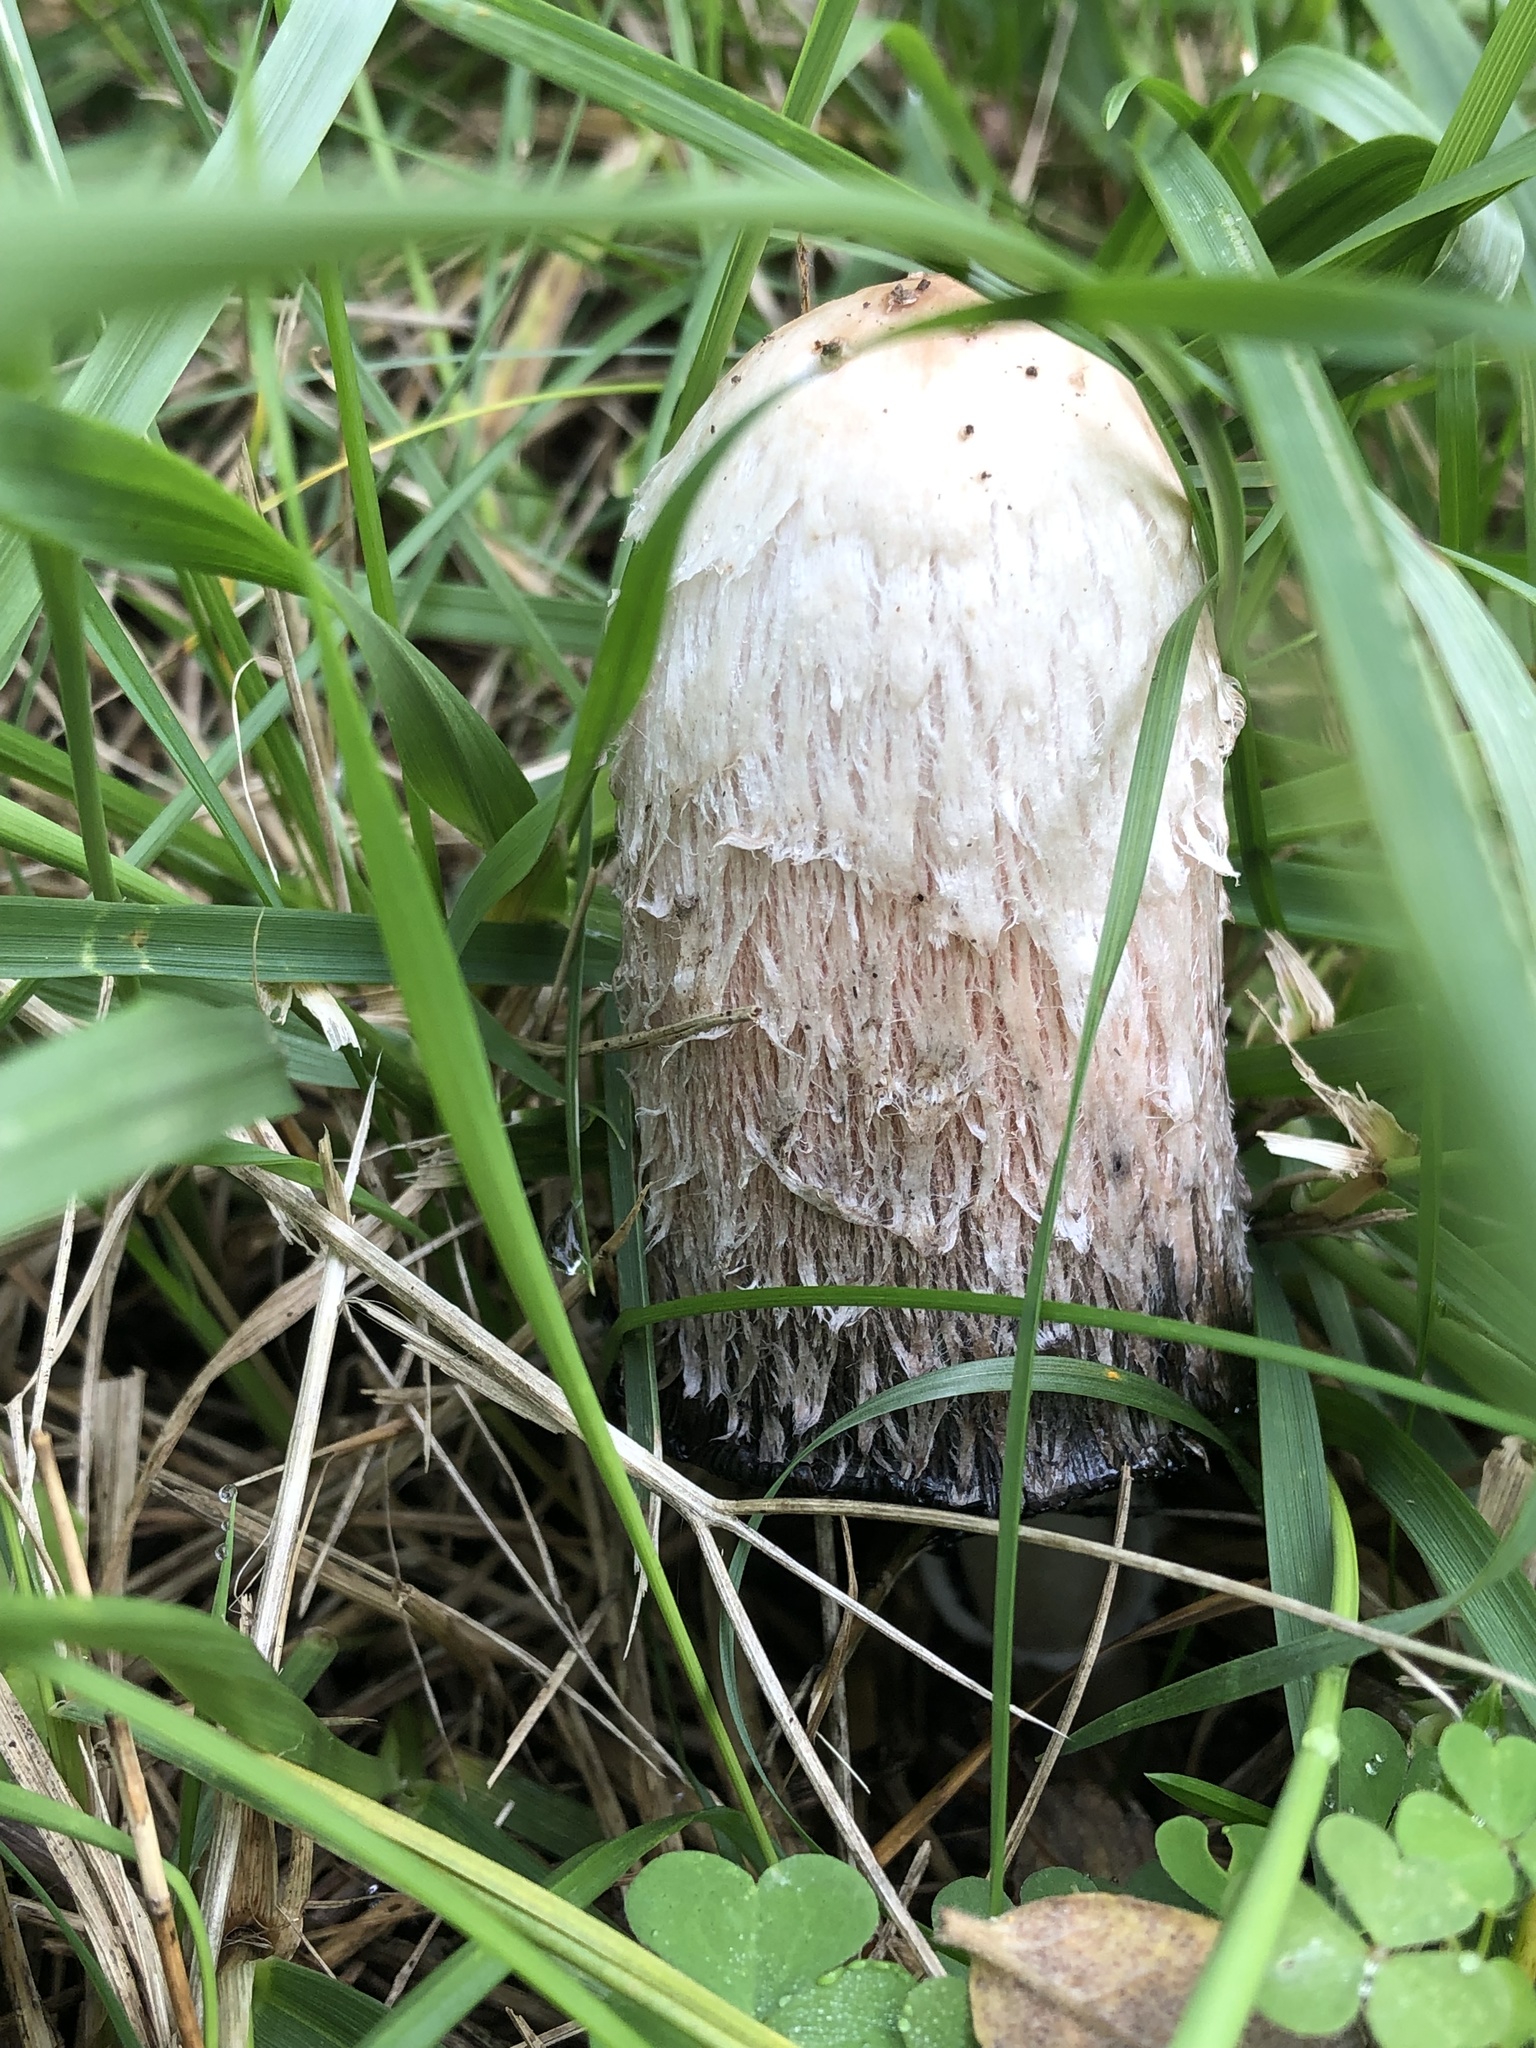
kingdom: Fungi
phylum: Basidiomycota
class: Agaricomycetes
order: Agaricales
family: Agaricaceae
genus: Coprinus
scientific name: Coprinus comatus
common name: Lawyer's wig
